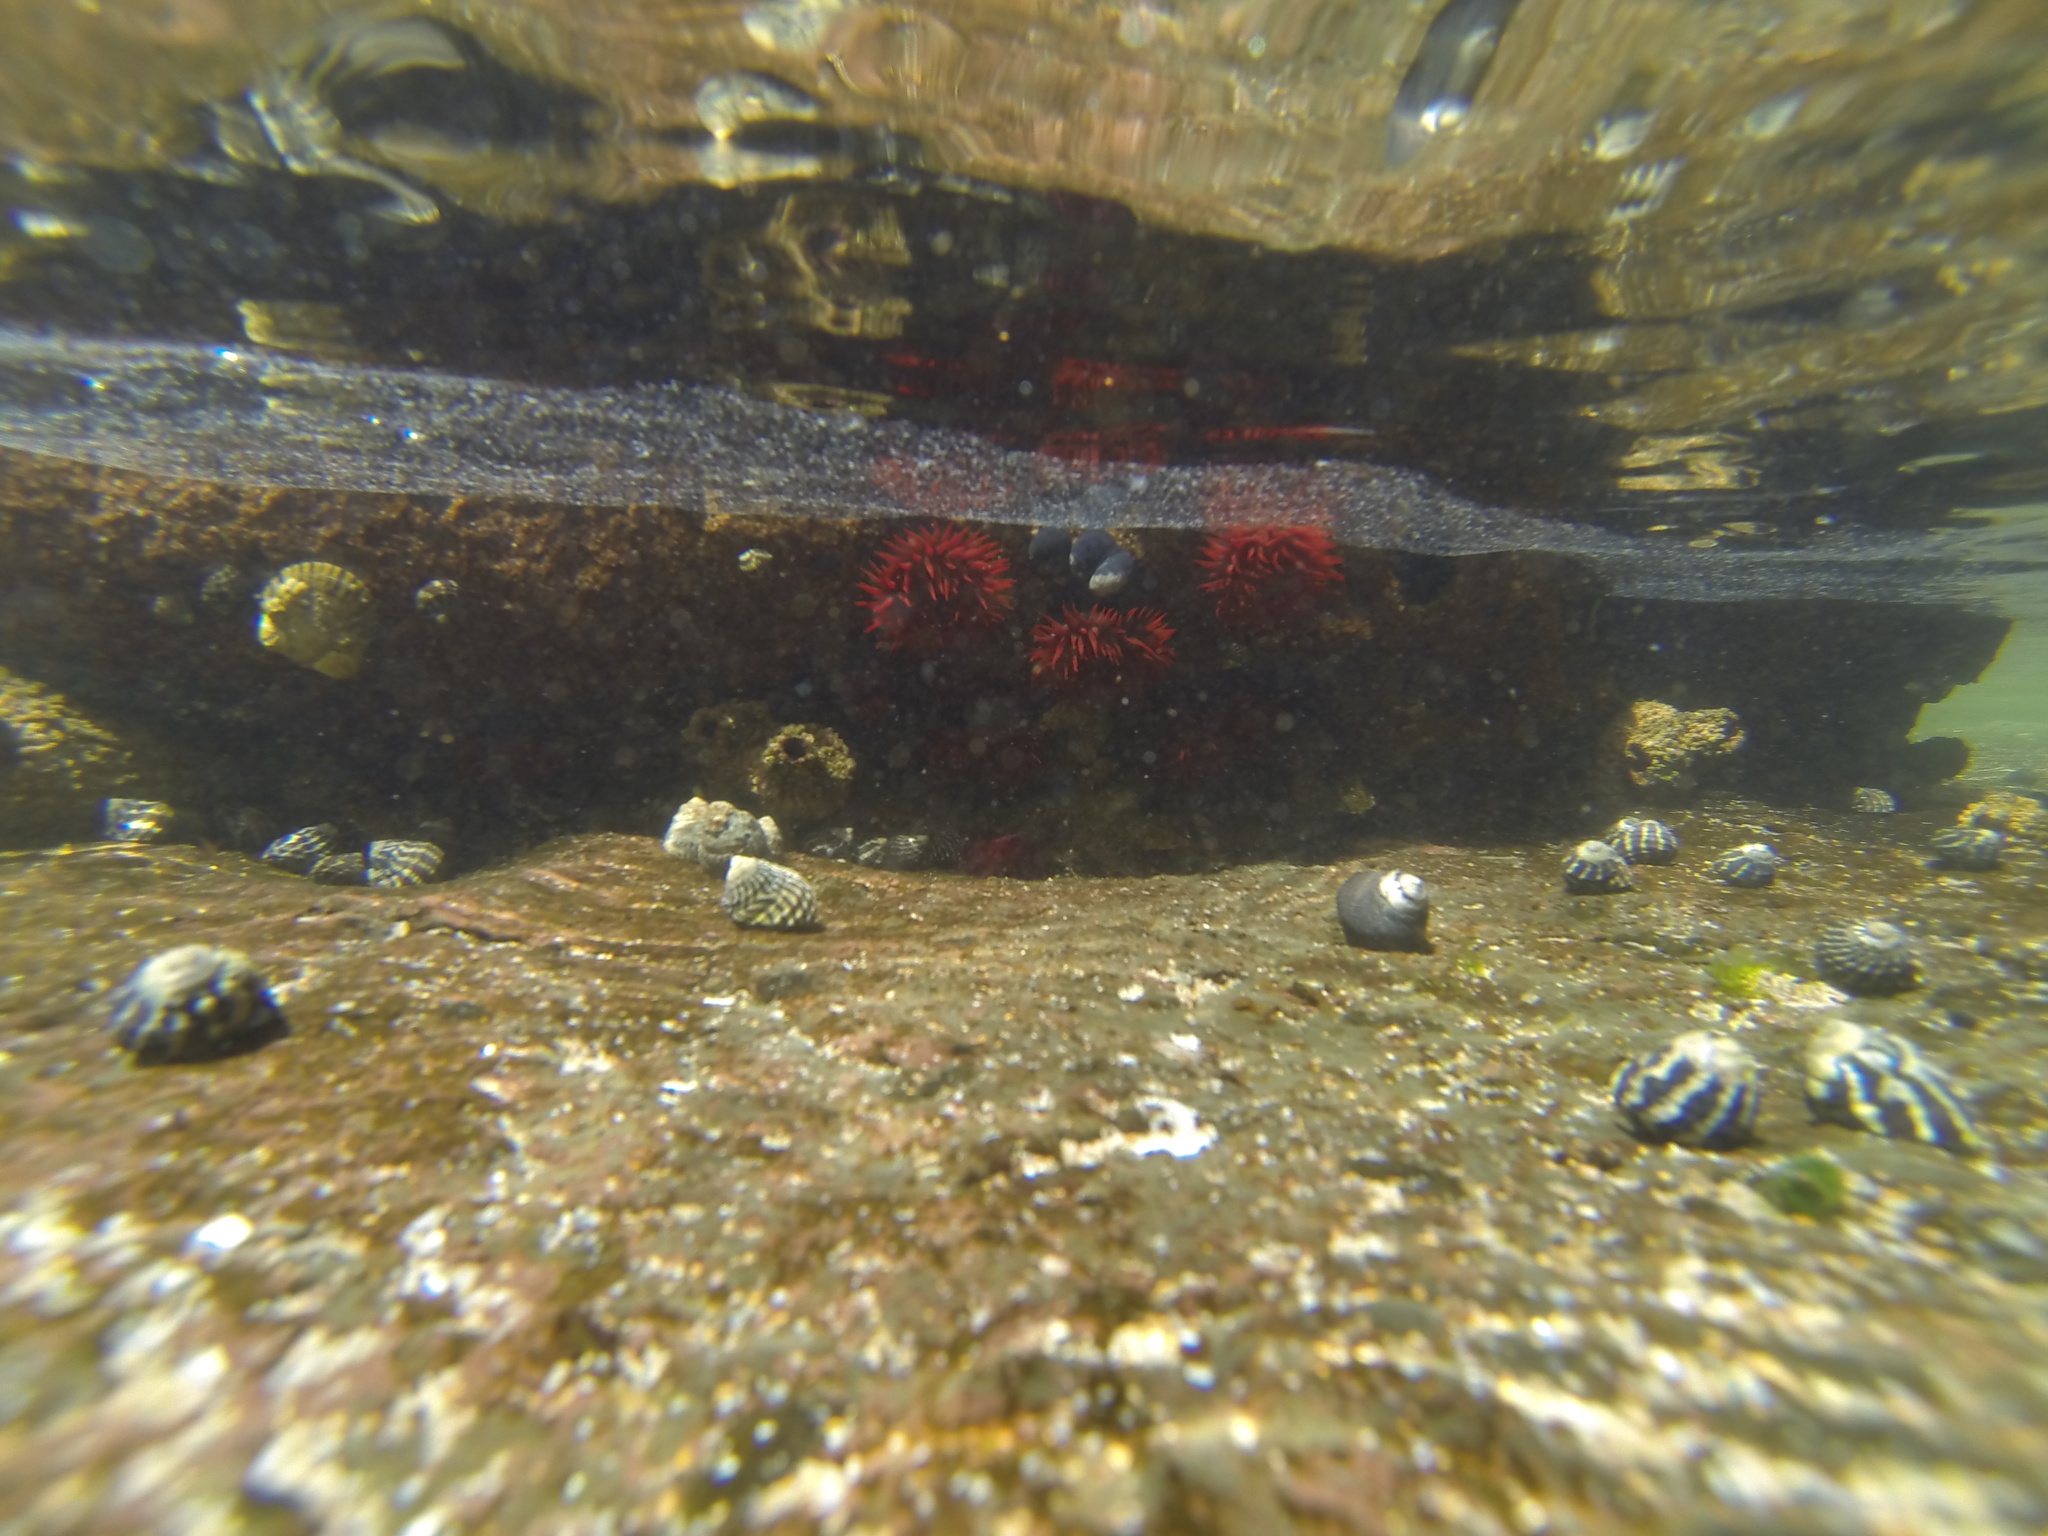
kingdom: Animalia
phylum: Mollusca
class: Gastropoda
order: Trochida
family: Trochidae
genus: Austrocochlea
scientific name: Austrocochlea porcata
